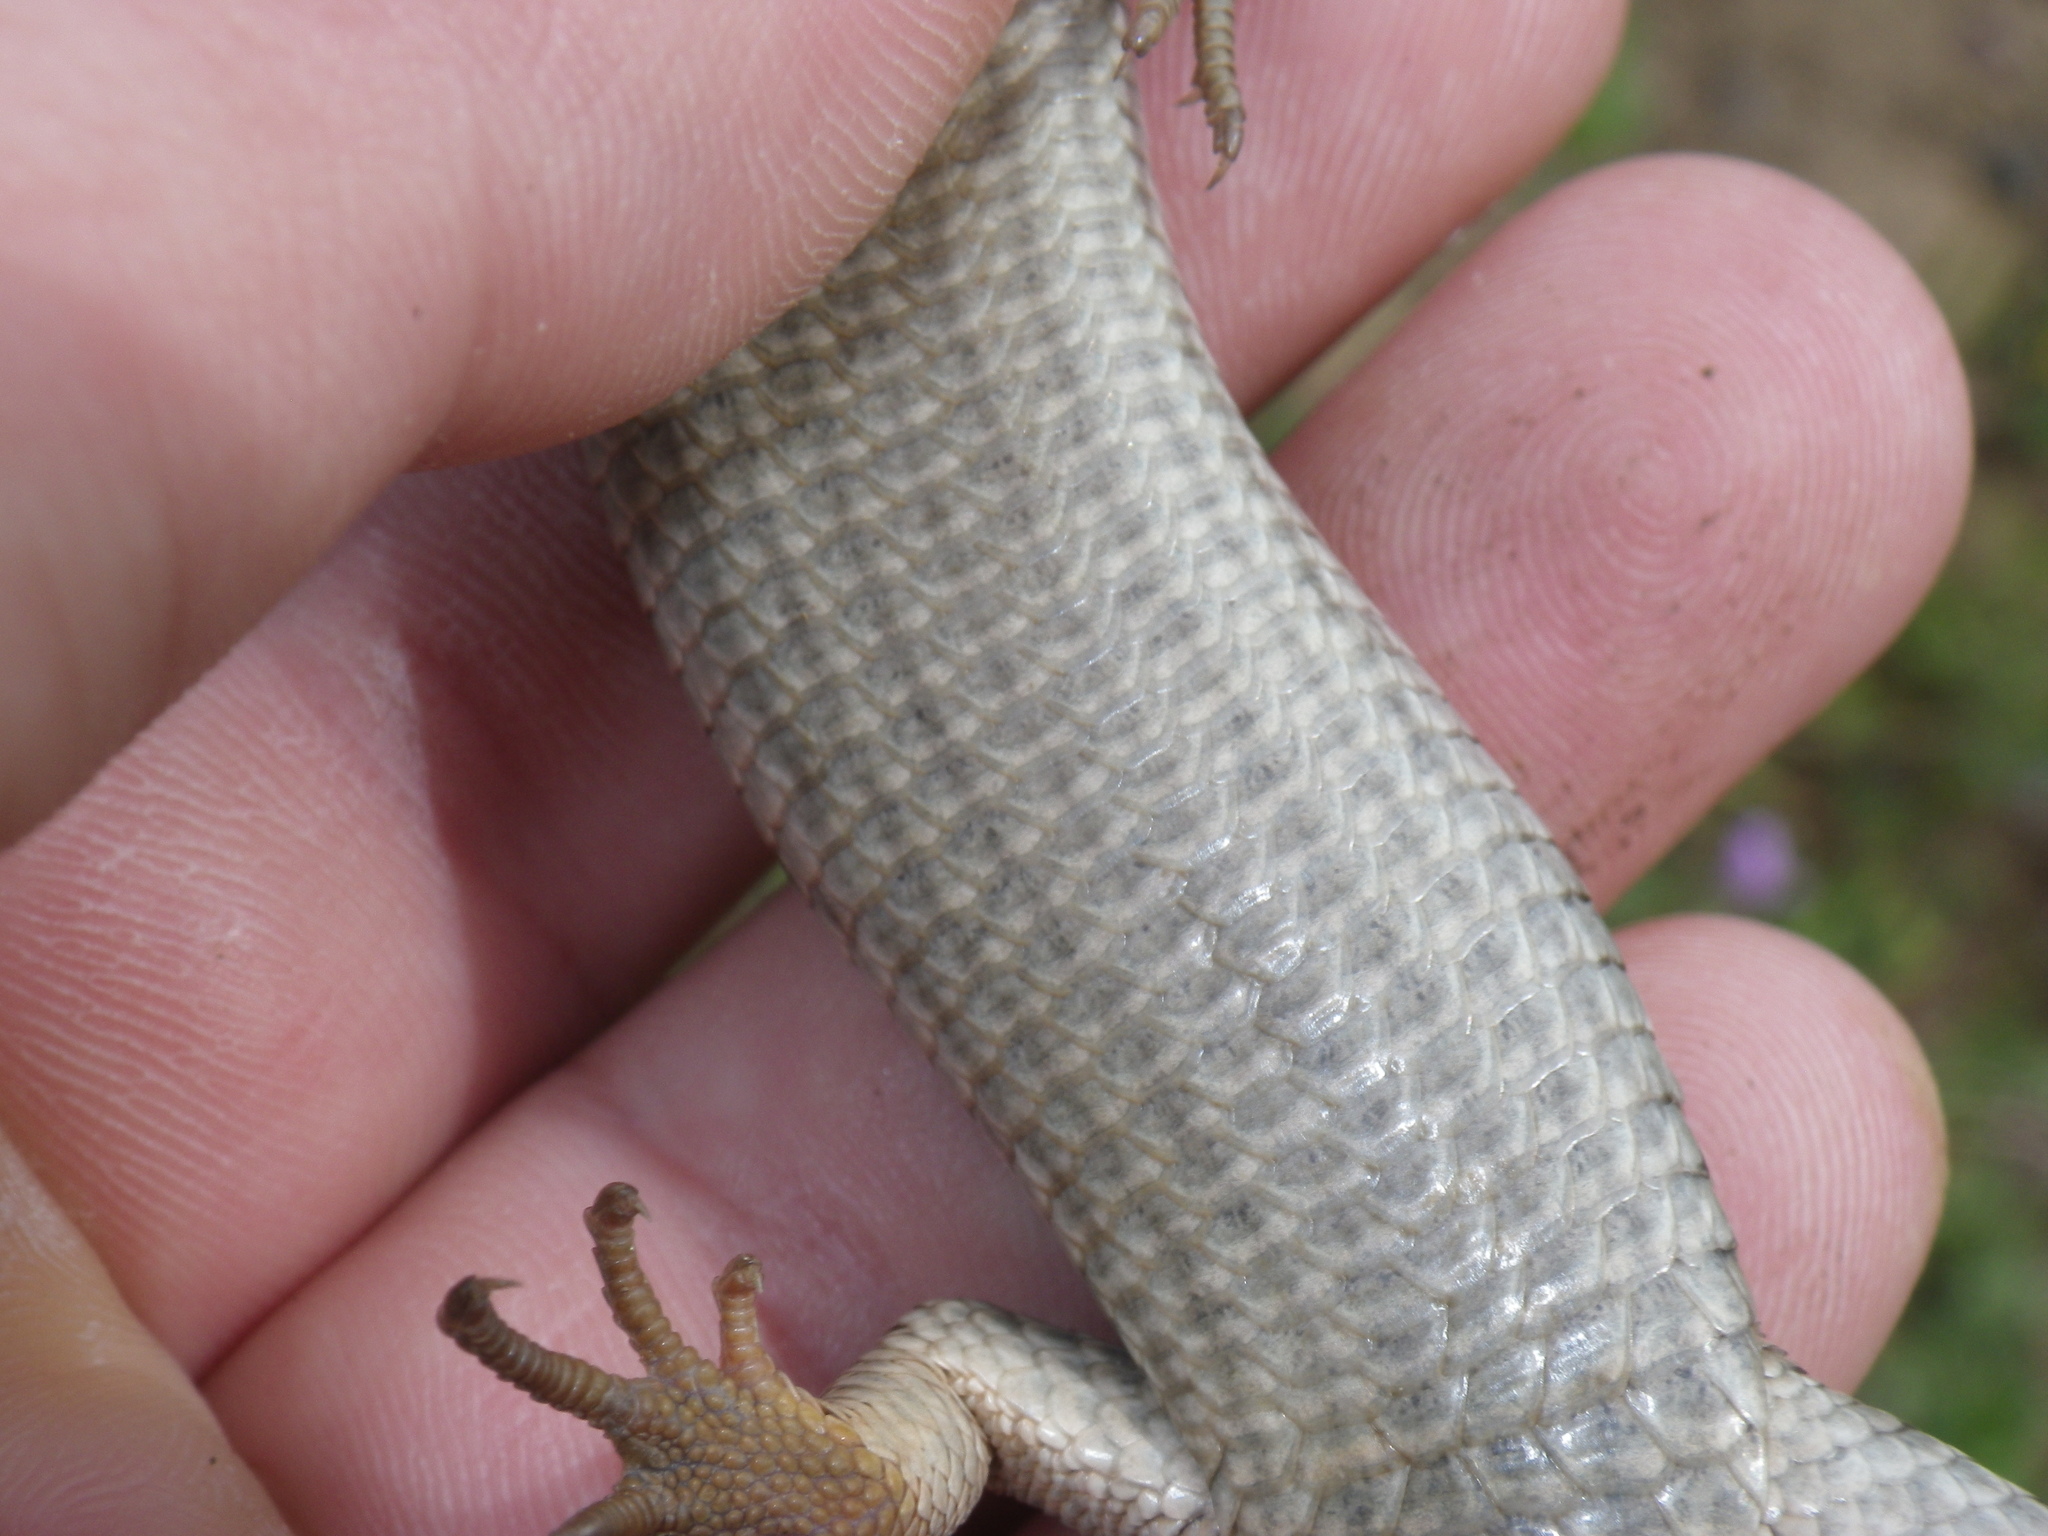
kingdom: Animalia
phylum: Chordata
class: Squamata
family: Anguidae
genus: Elgaria
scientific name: Elgaria multicarinata
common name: Southern alligator lizard
